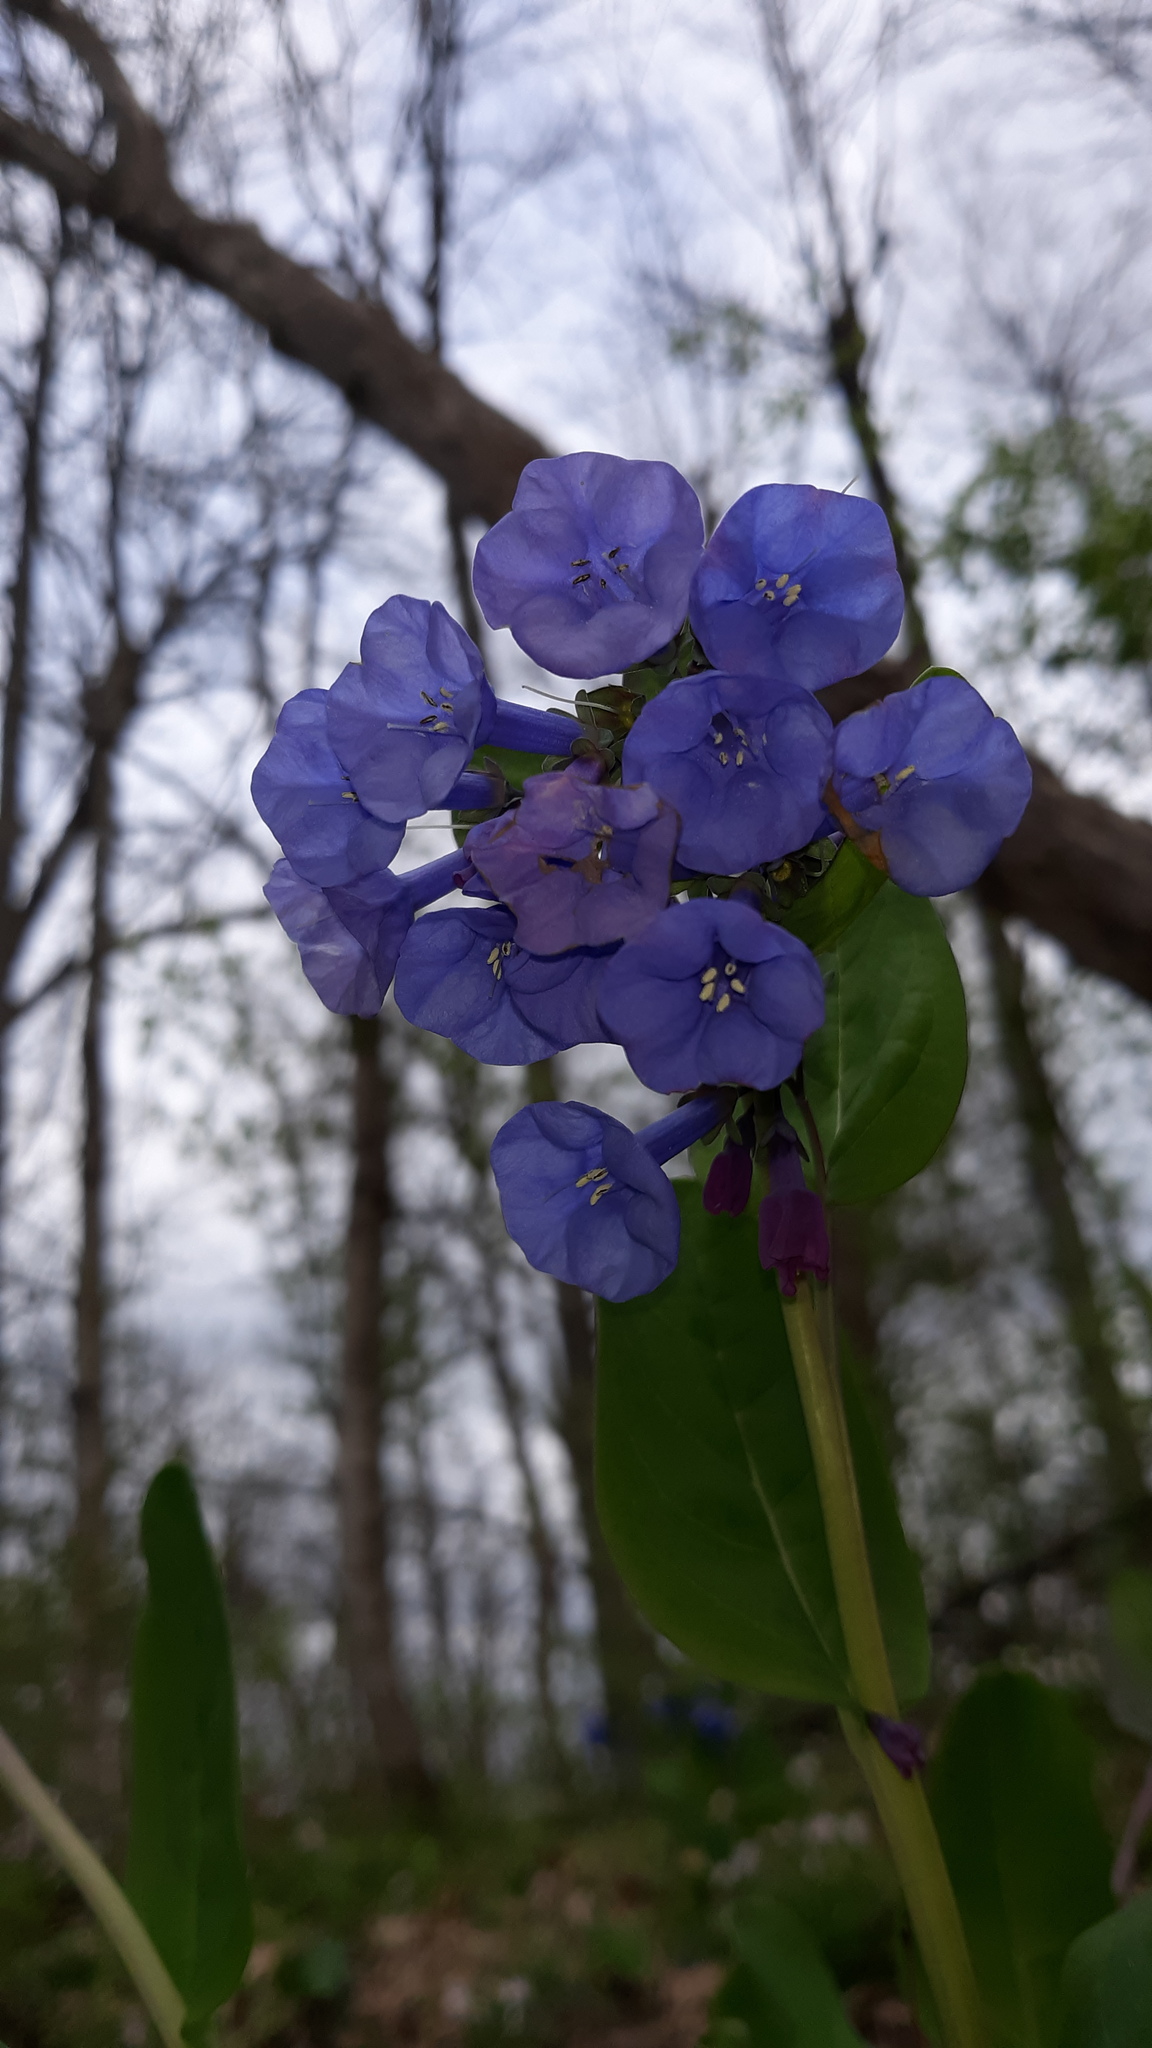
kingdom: Plantae
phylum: Tracheophyta
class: Magnoliopsida
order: Boraginales
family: Boraginaceae
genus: Mertensia
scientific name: Mertensia virginica
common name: Virginia bluebells
